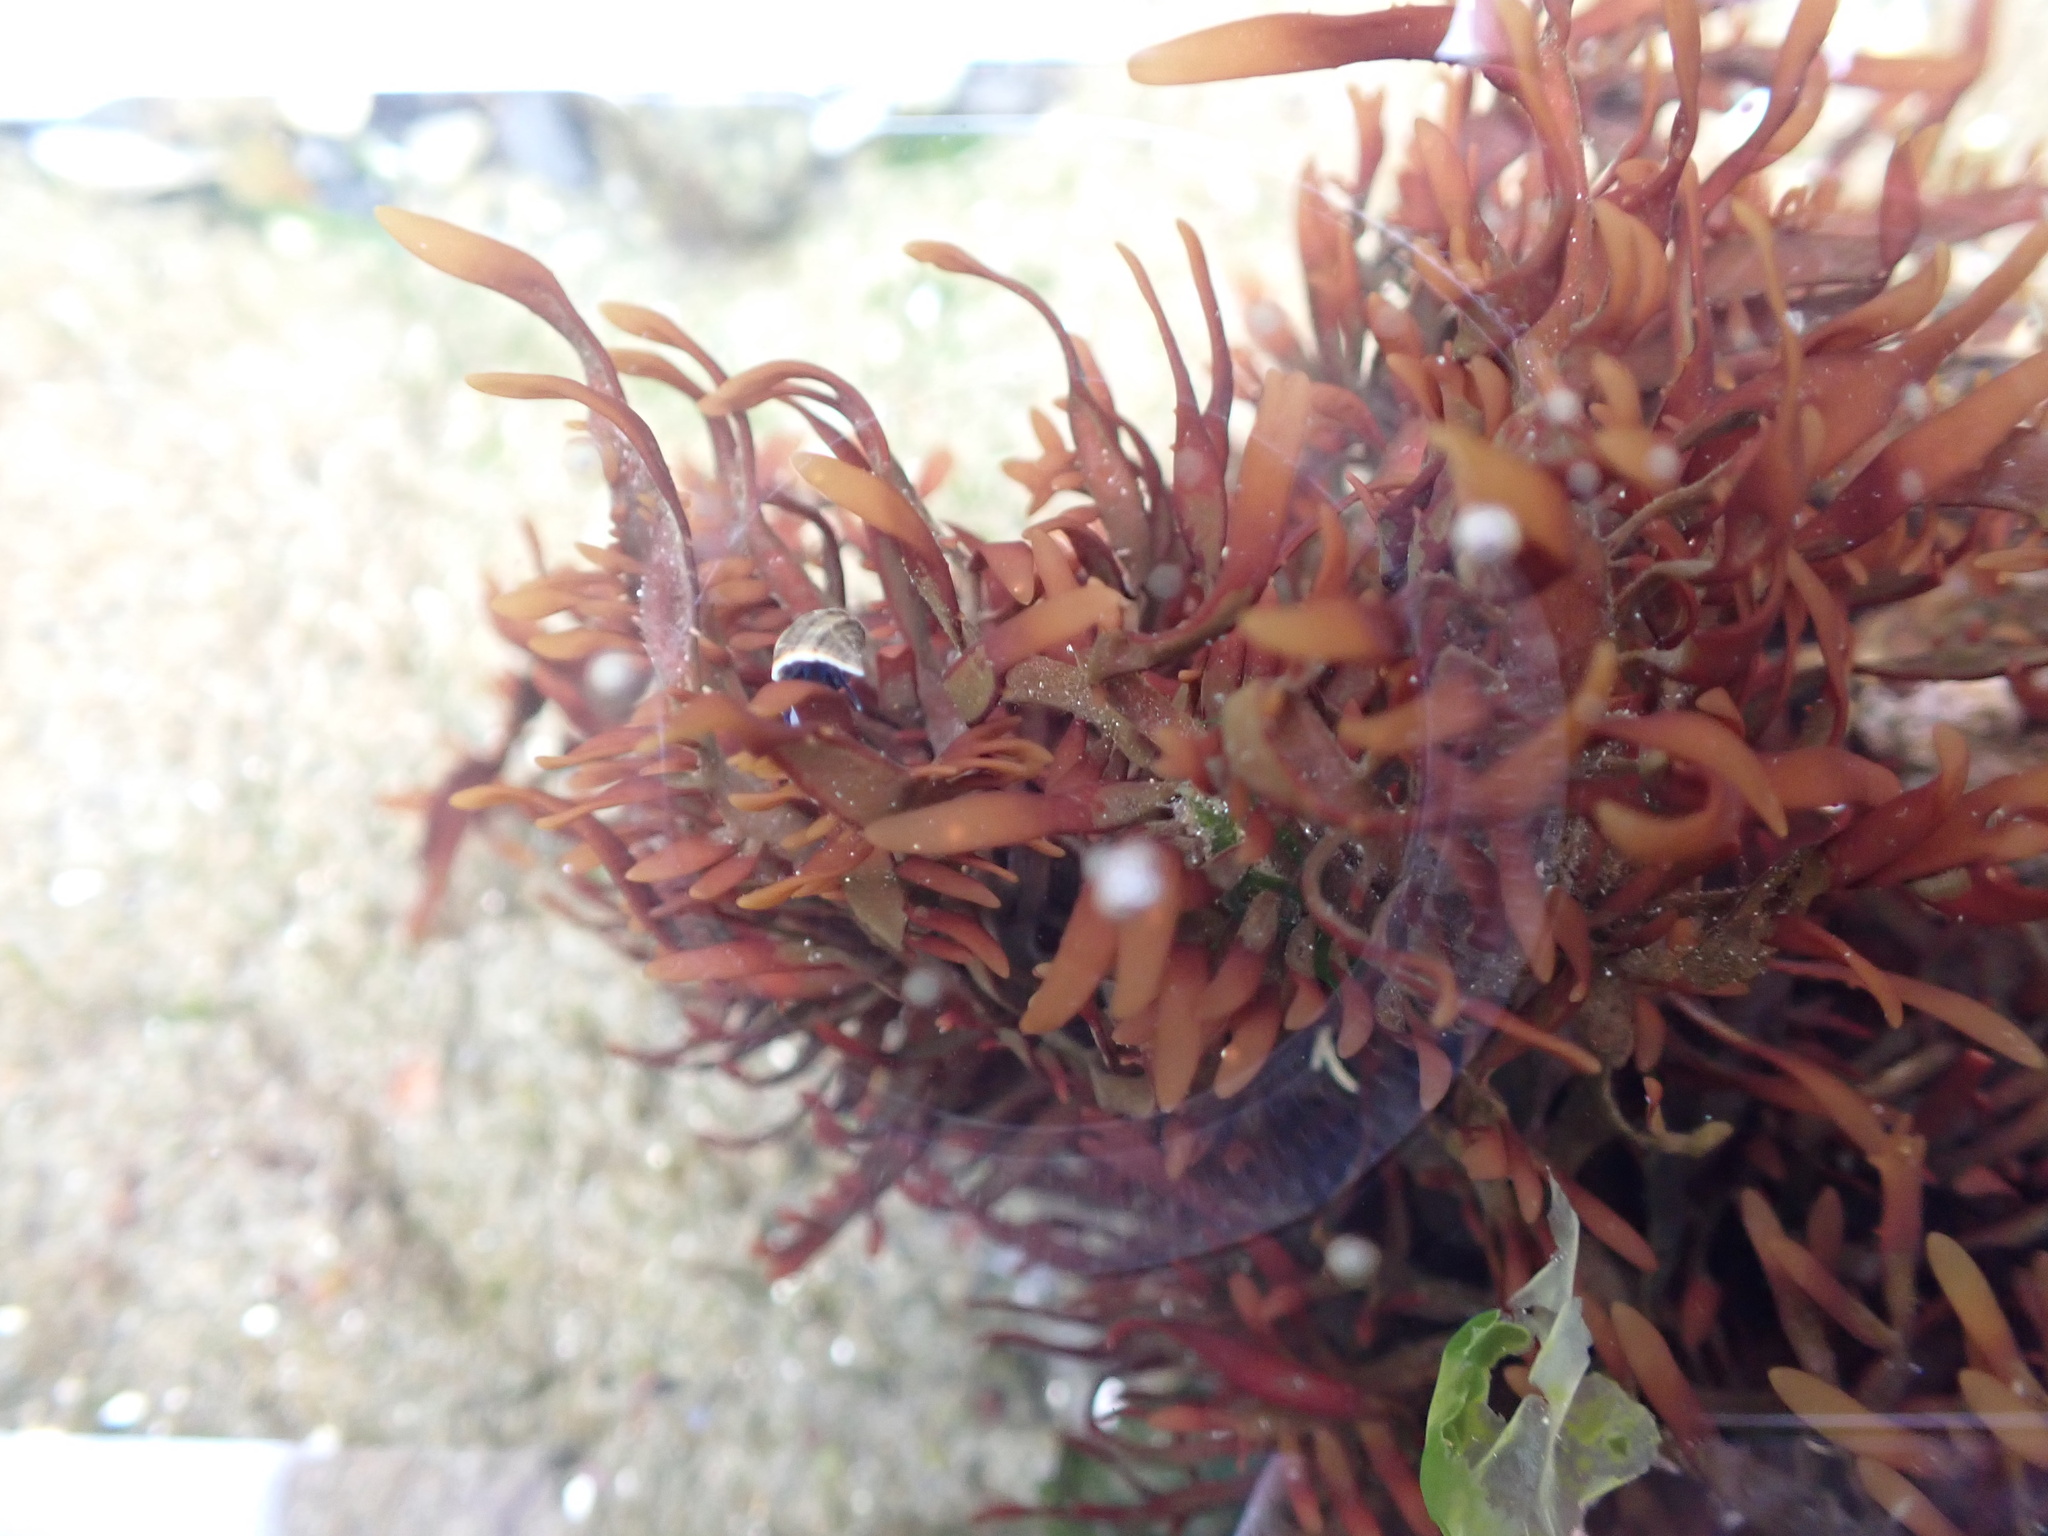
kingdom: Plantae
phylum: Rhodophyta
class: Florideophyceae
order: Halymeniales
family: Halymeniaceae
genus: Grateloupia
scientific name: Grateloupia Prionitis lanceolata
